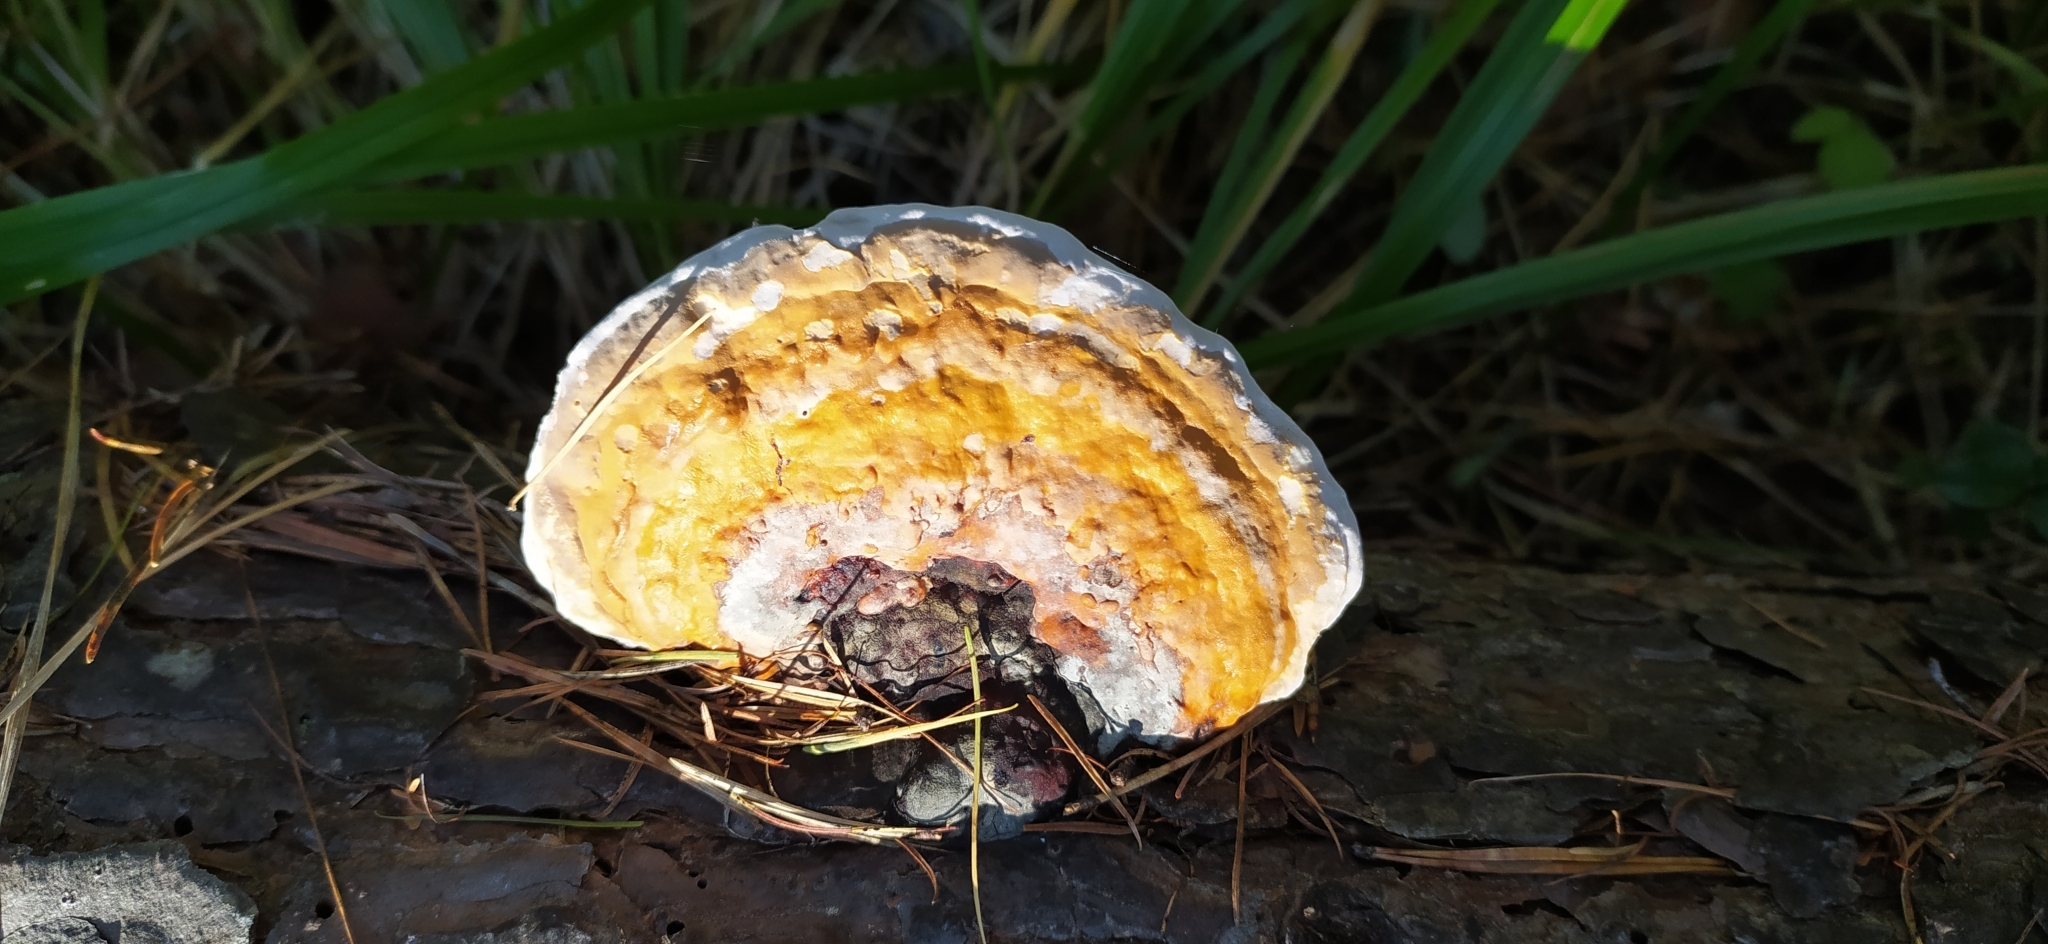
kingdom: Fungi
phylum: Basidiomycota
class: Agaricomycetes
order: Polyporales
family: Fomitopsidaceae
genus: Fomitopsis
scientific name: Fomitopsis pinicola
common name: Red-belted bracket
